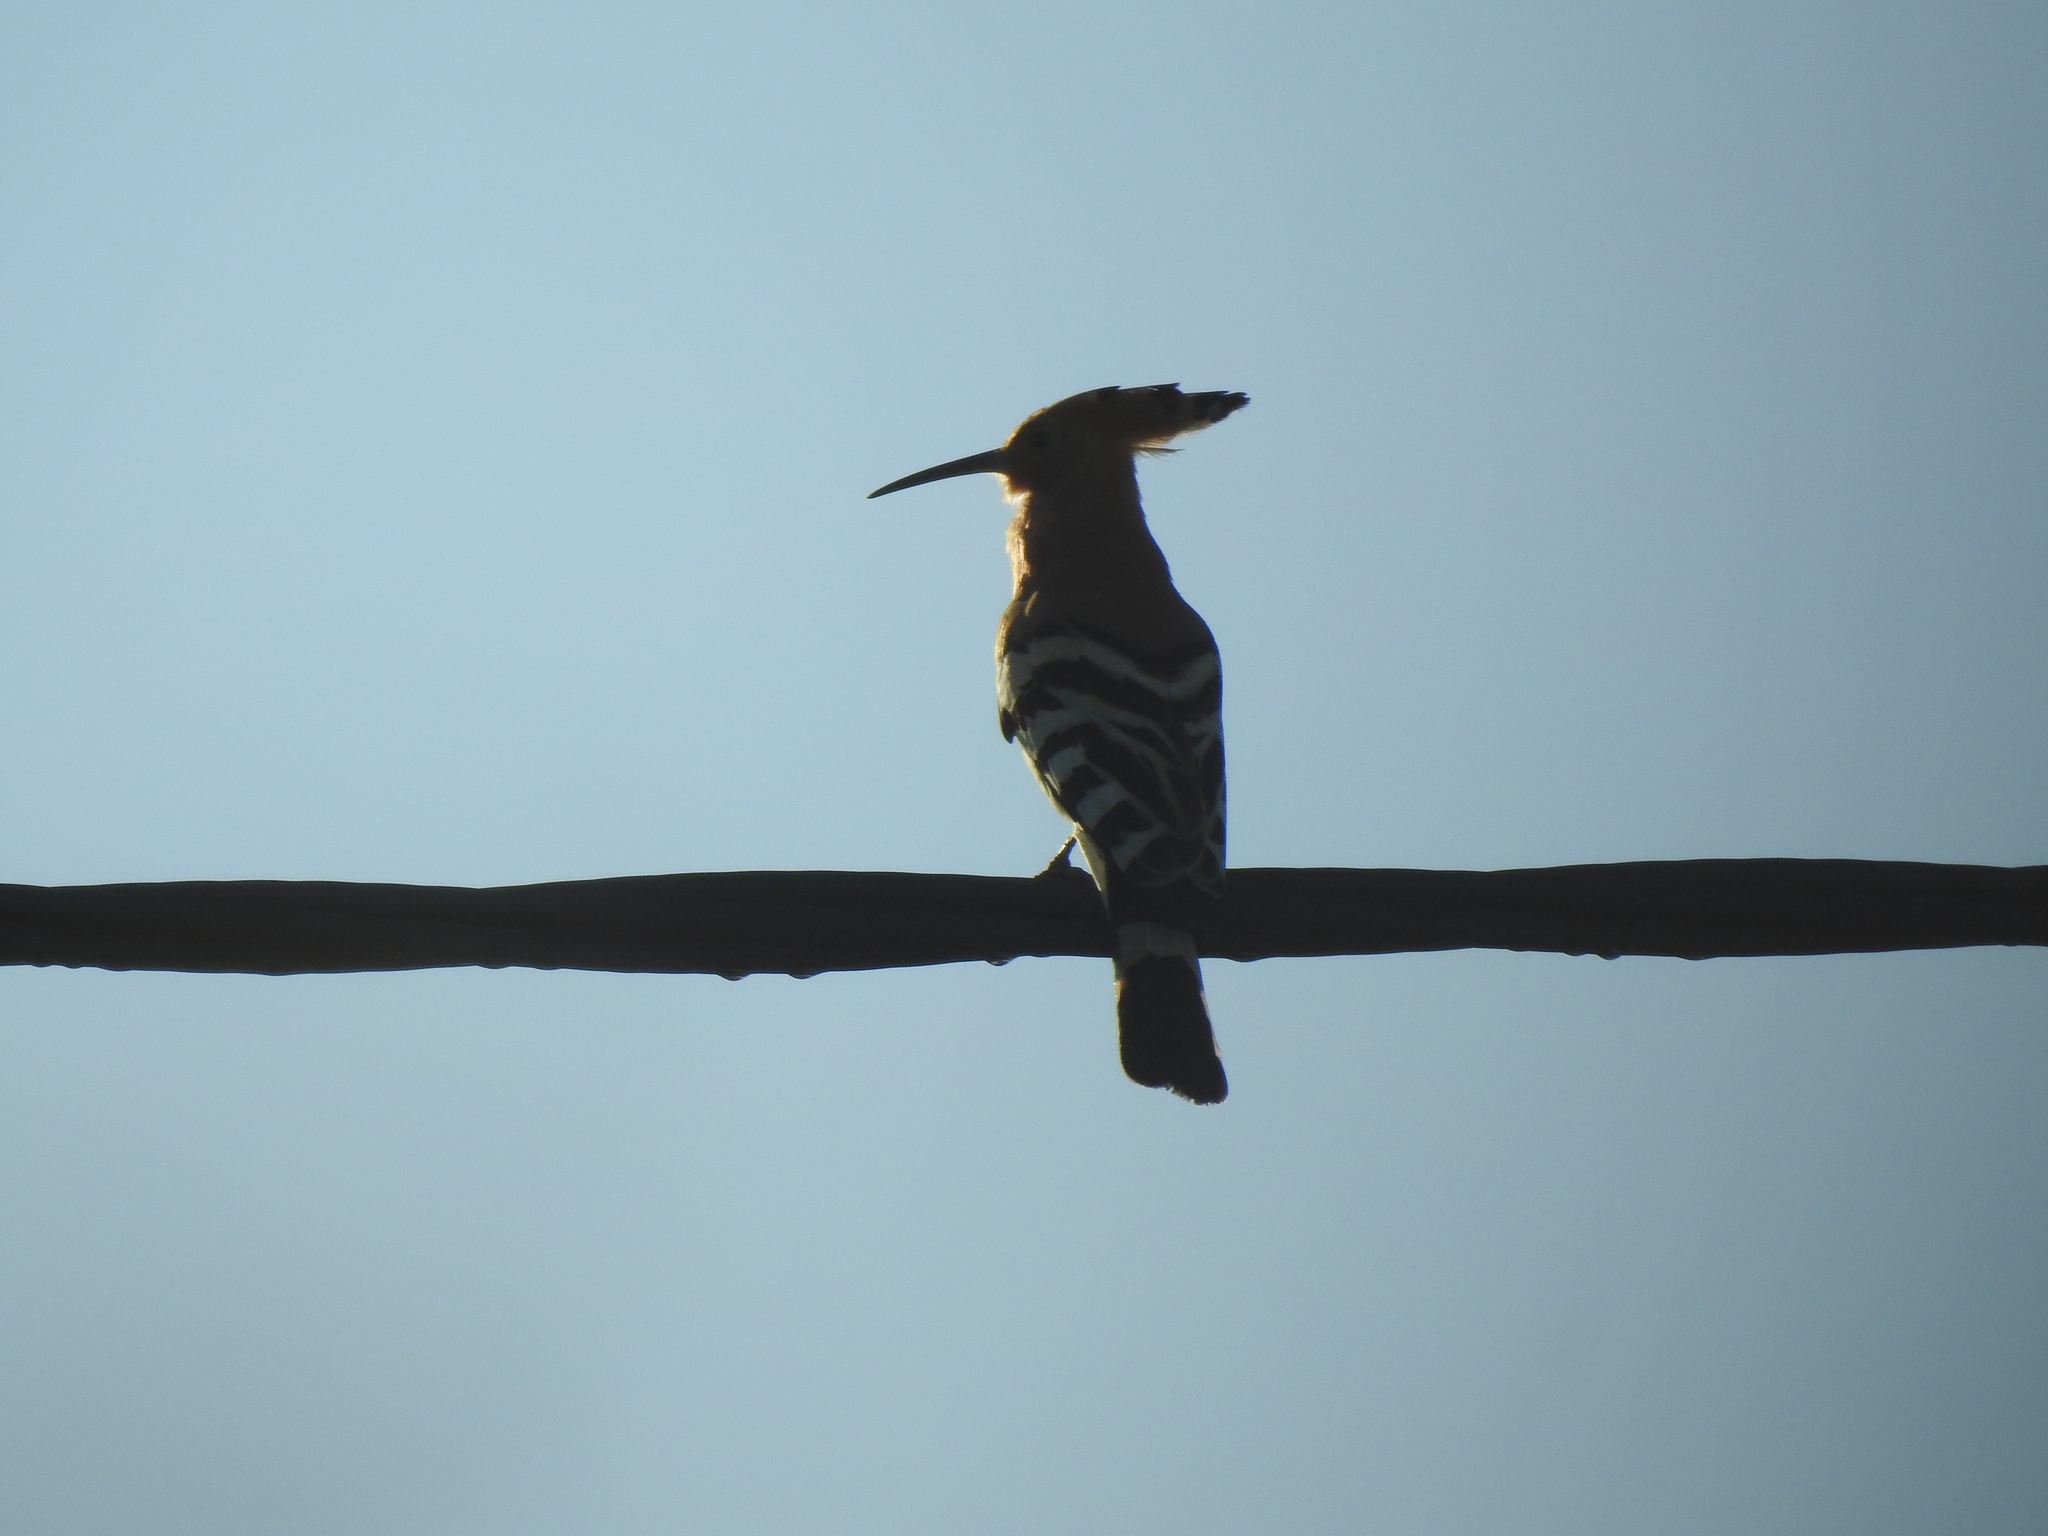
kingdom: Animalia
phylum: Chordata
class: Aves
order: Bucerotiformes
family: Upupidae
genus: Upupa
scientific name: Upupa epops
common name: Eurasian hoopoe
